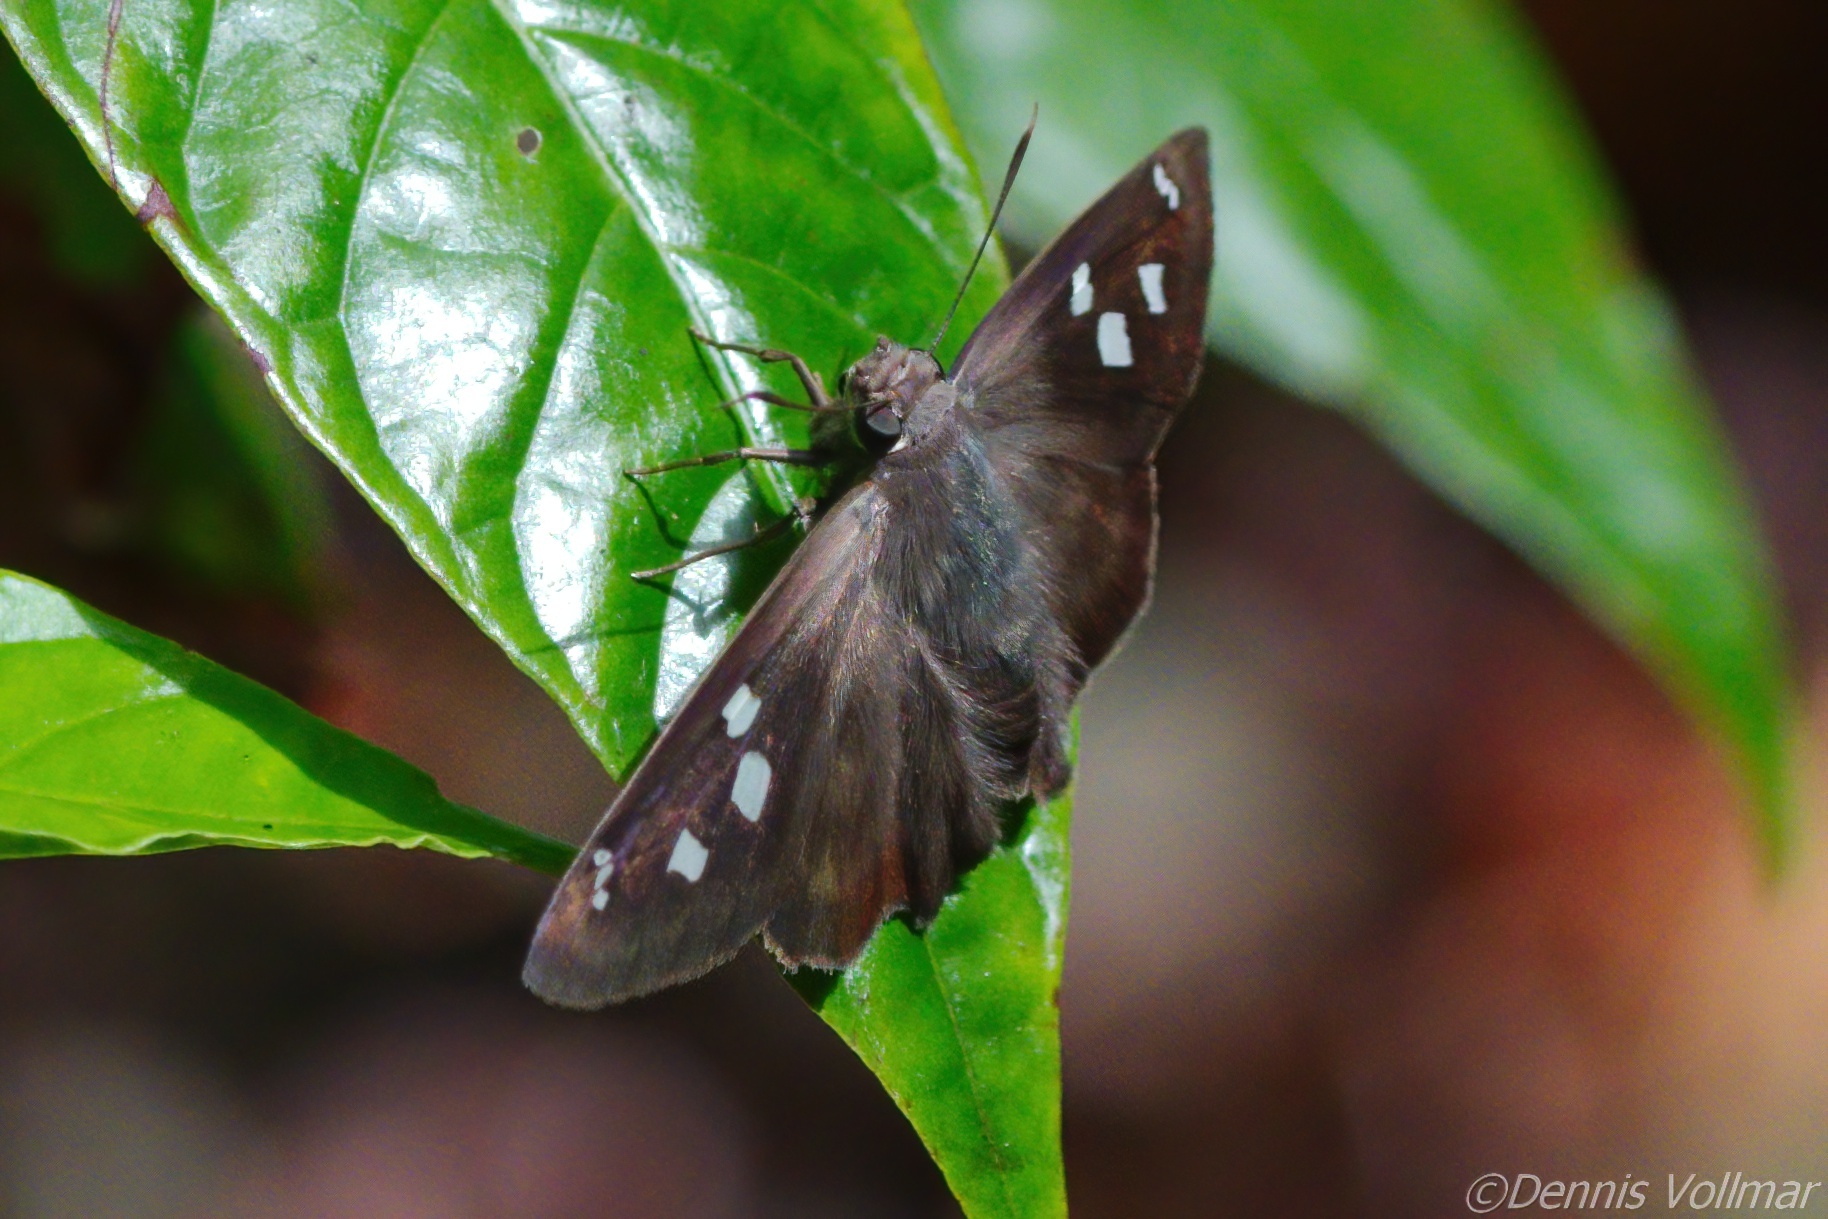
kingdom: Animalia
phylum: Arthropoda
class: Insecta
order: Lepidoptera
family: Hesperiidae
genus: Polygonus
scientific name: Polygonus leo
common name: Hammoch skipper
